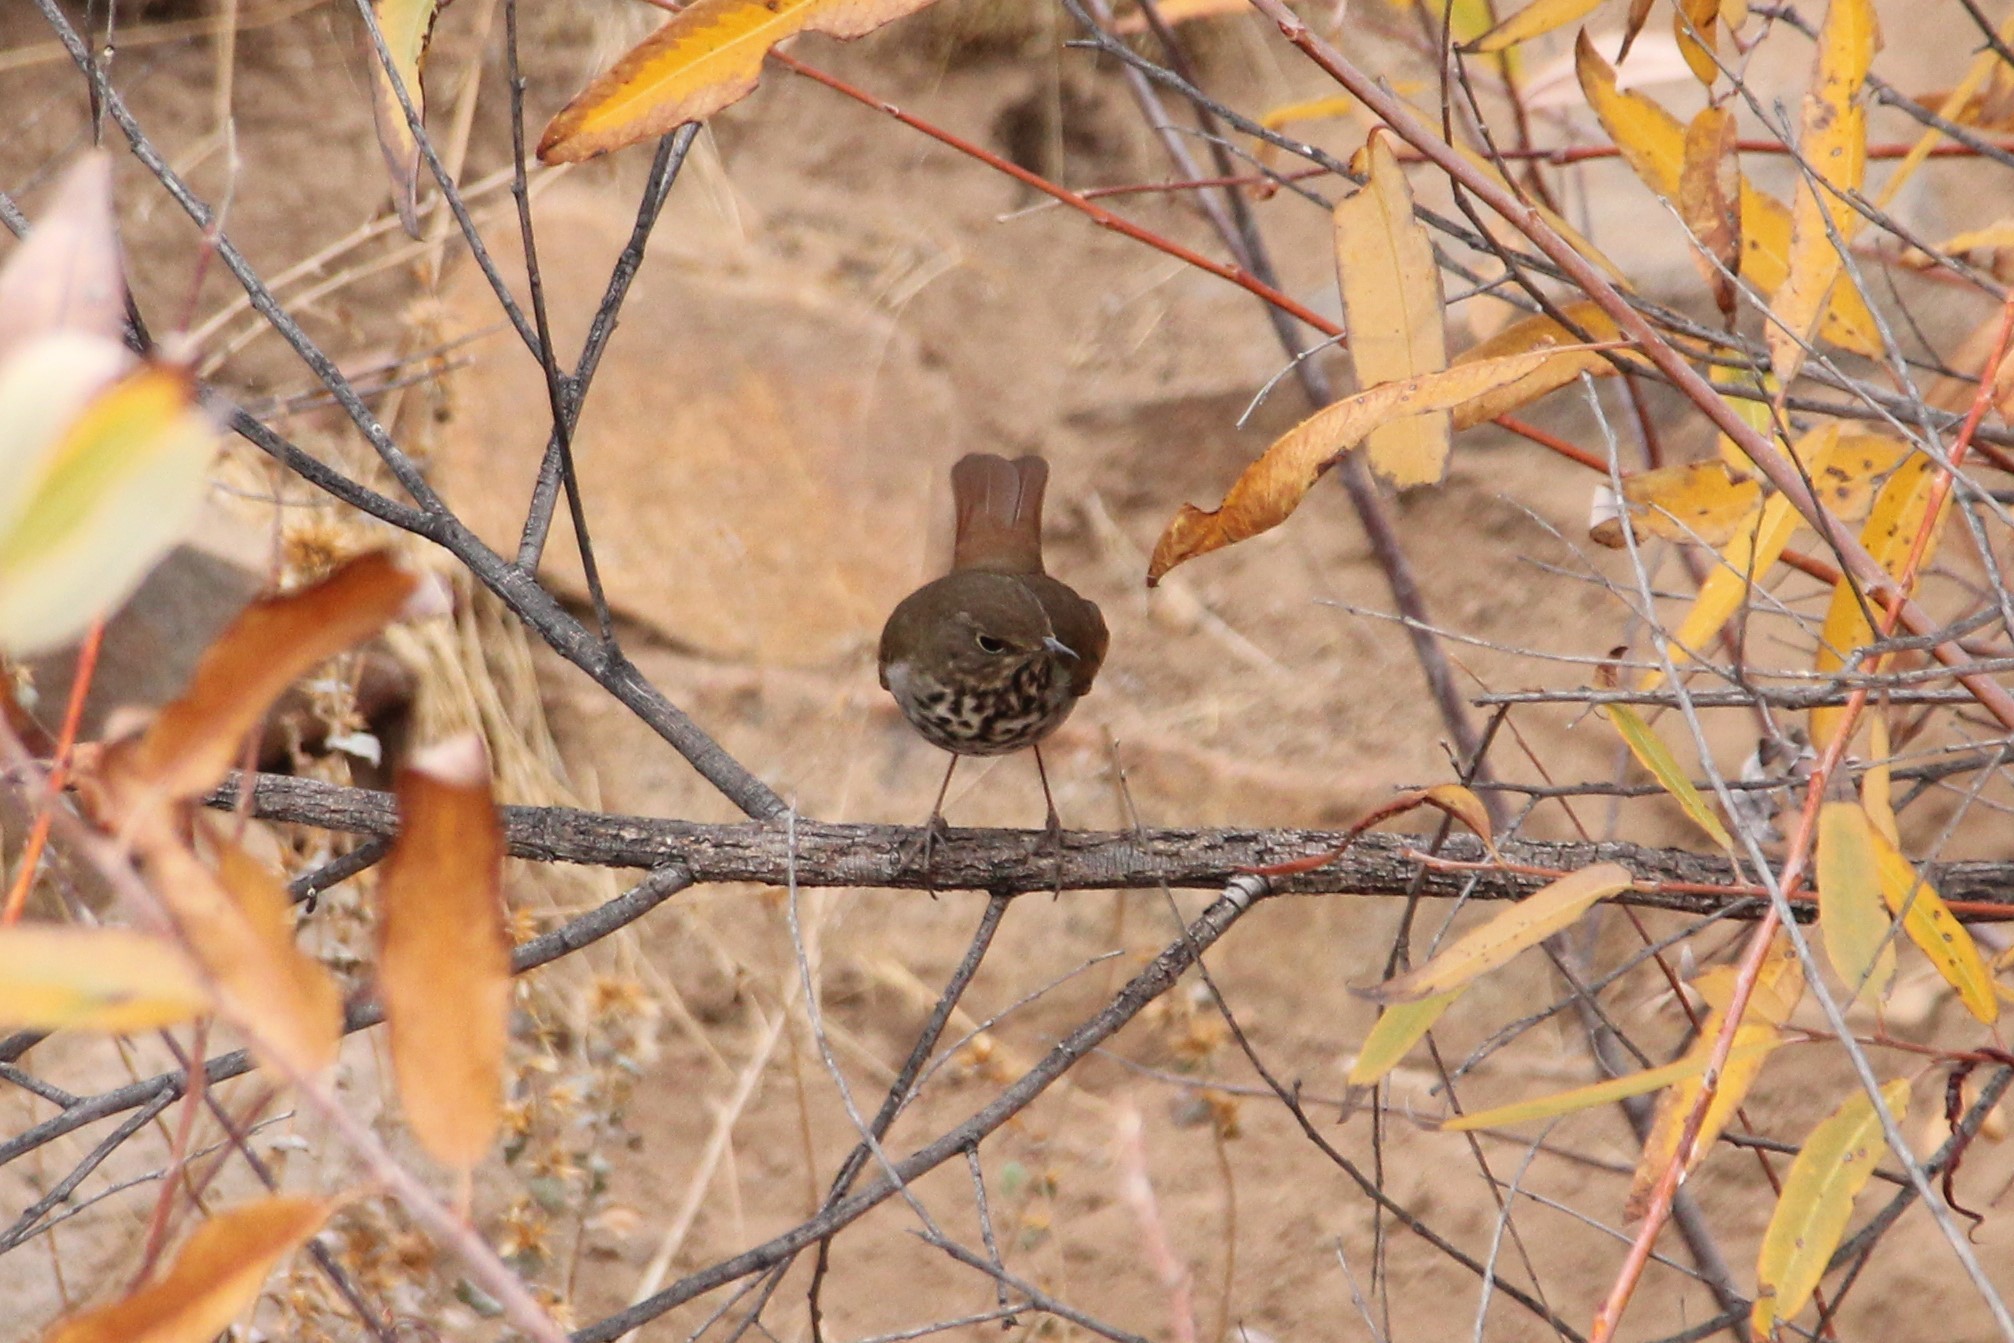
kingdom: Animalia
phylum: Chordata
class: Aves
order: Passeriformes
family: Turdidae
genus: Catharus
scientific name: Catharus guttatus
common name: Hermit thrush
